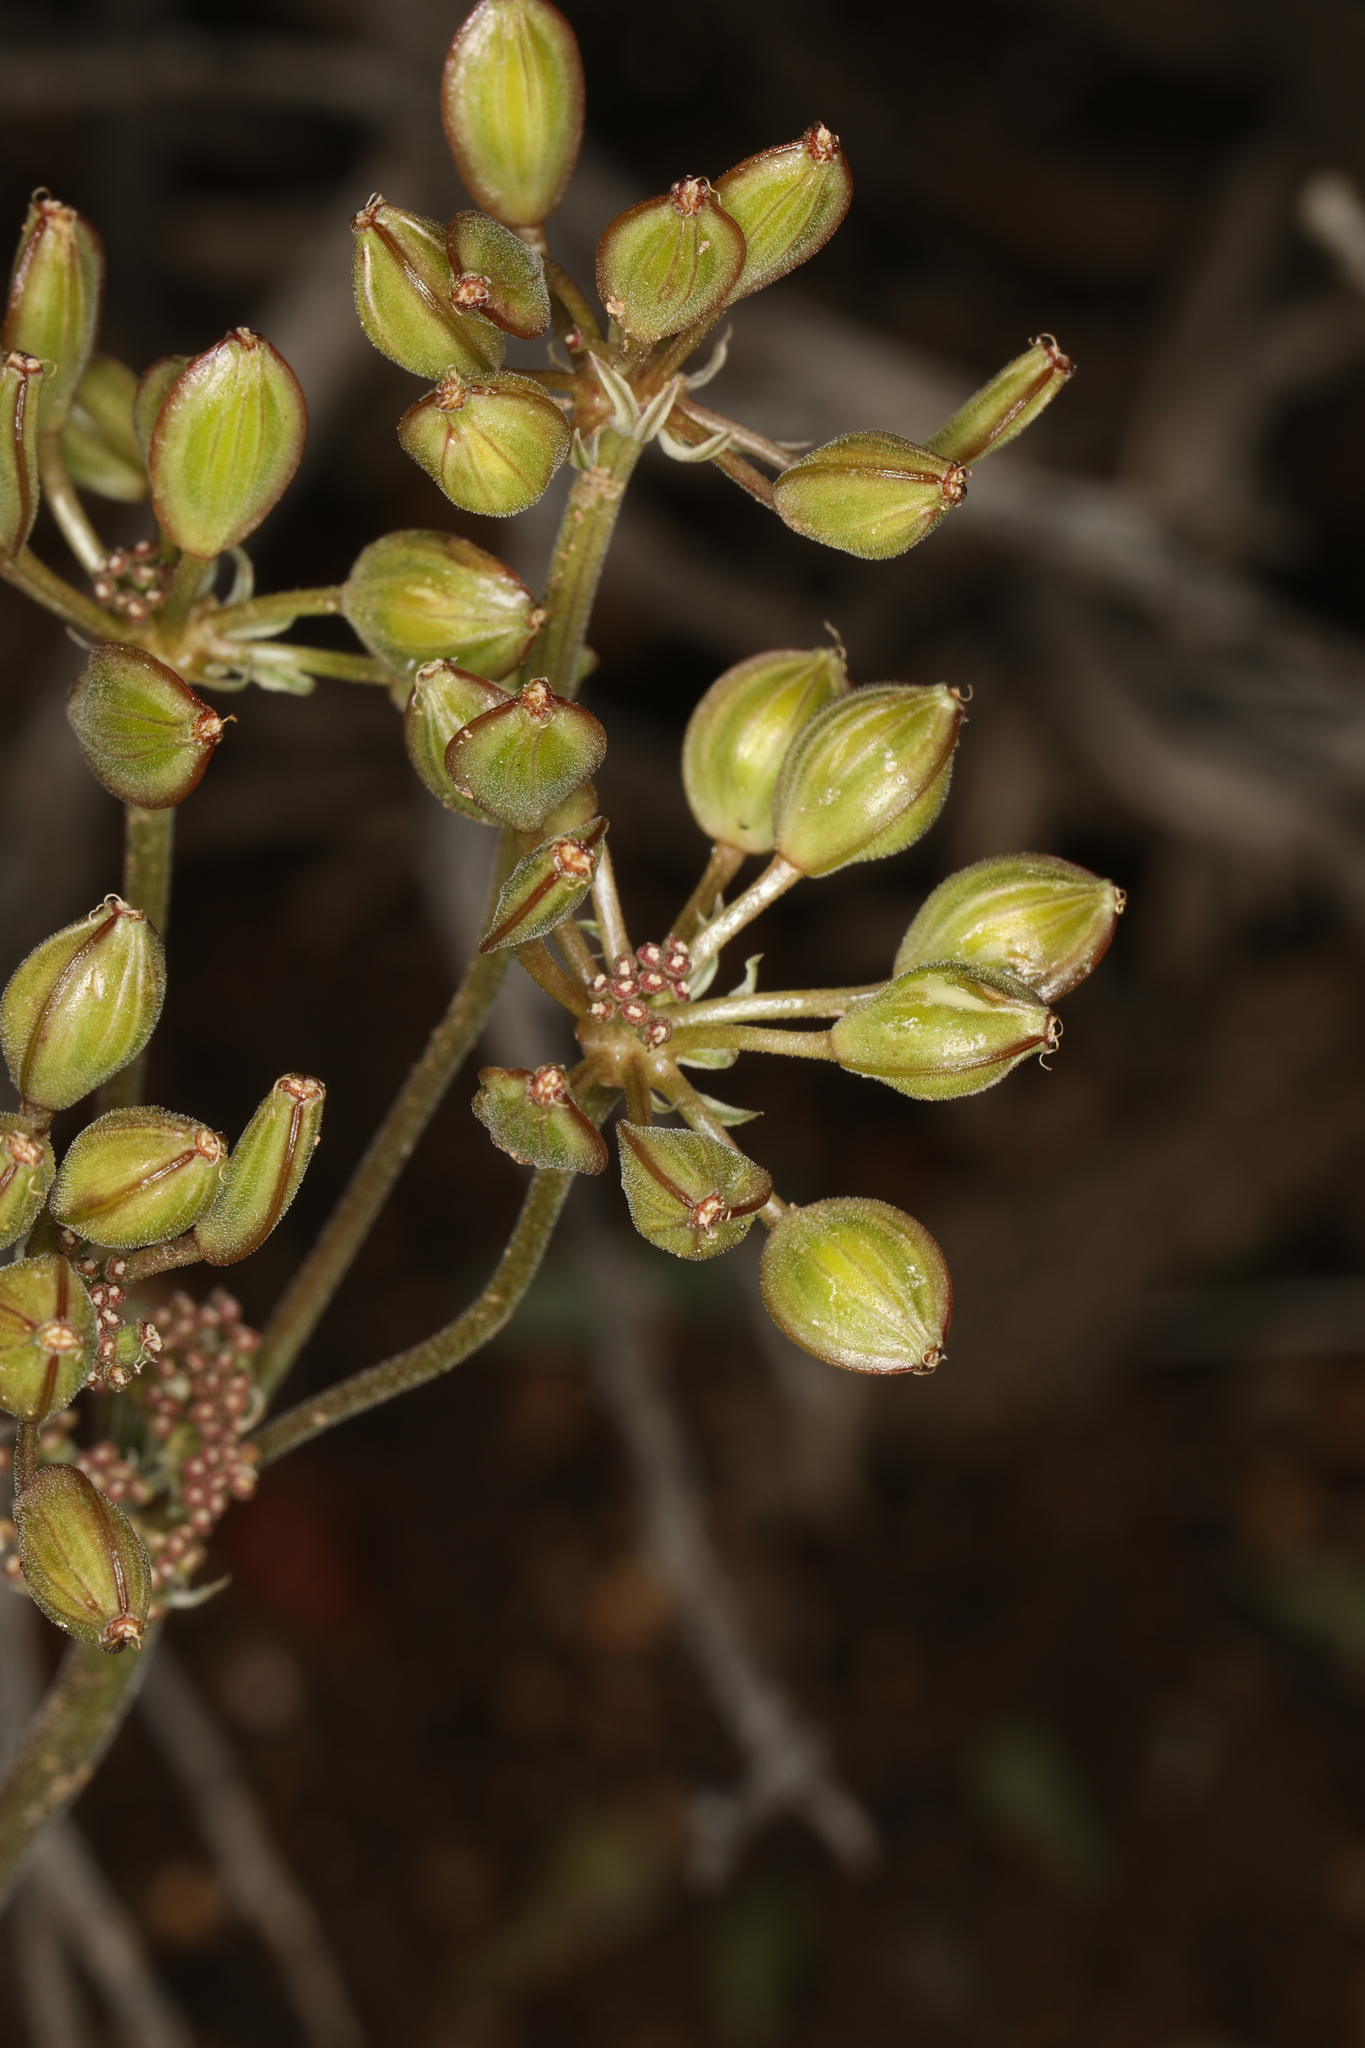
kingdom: Plantae
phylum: Tracheophyta
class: Magnoliopsida
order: Apiales
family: Apiaceae
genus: Lomatium
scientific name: Lomatium nevadense
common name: Nevada lomatium
